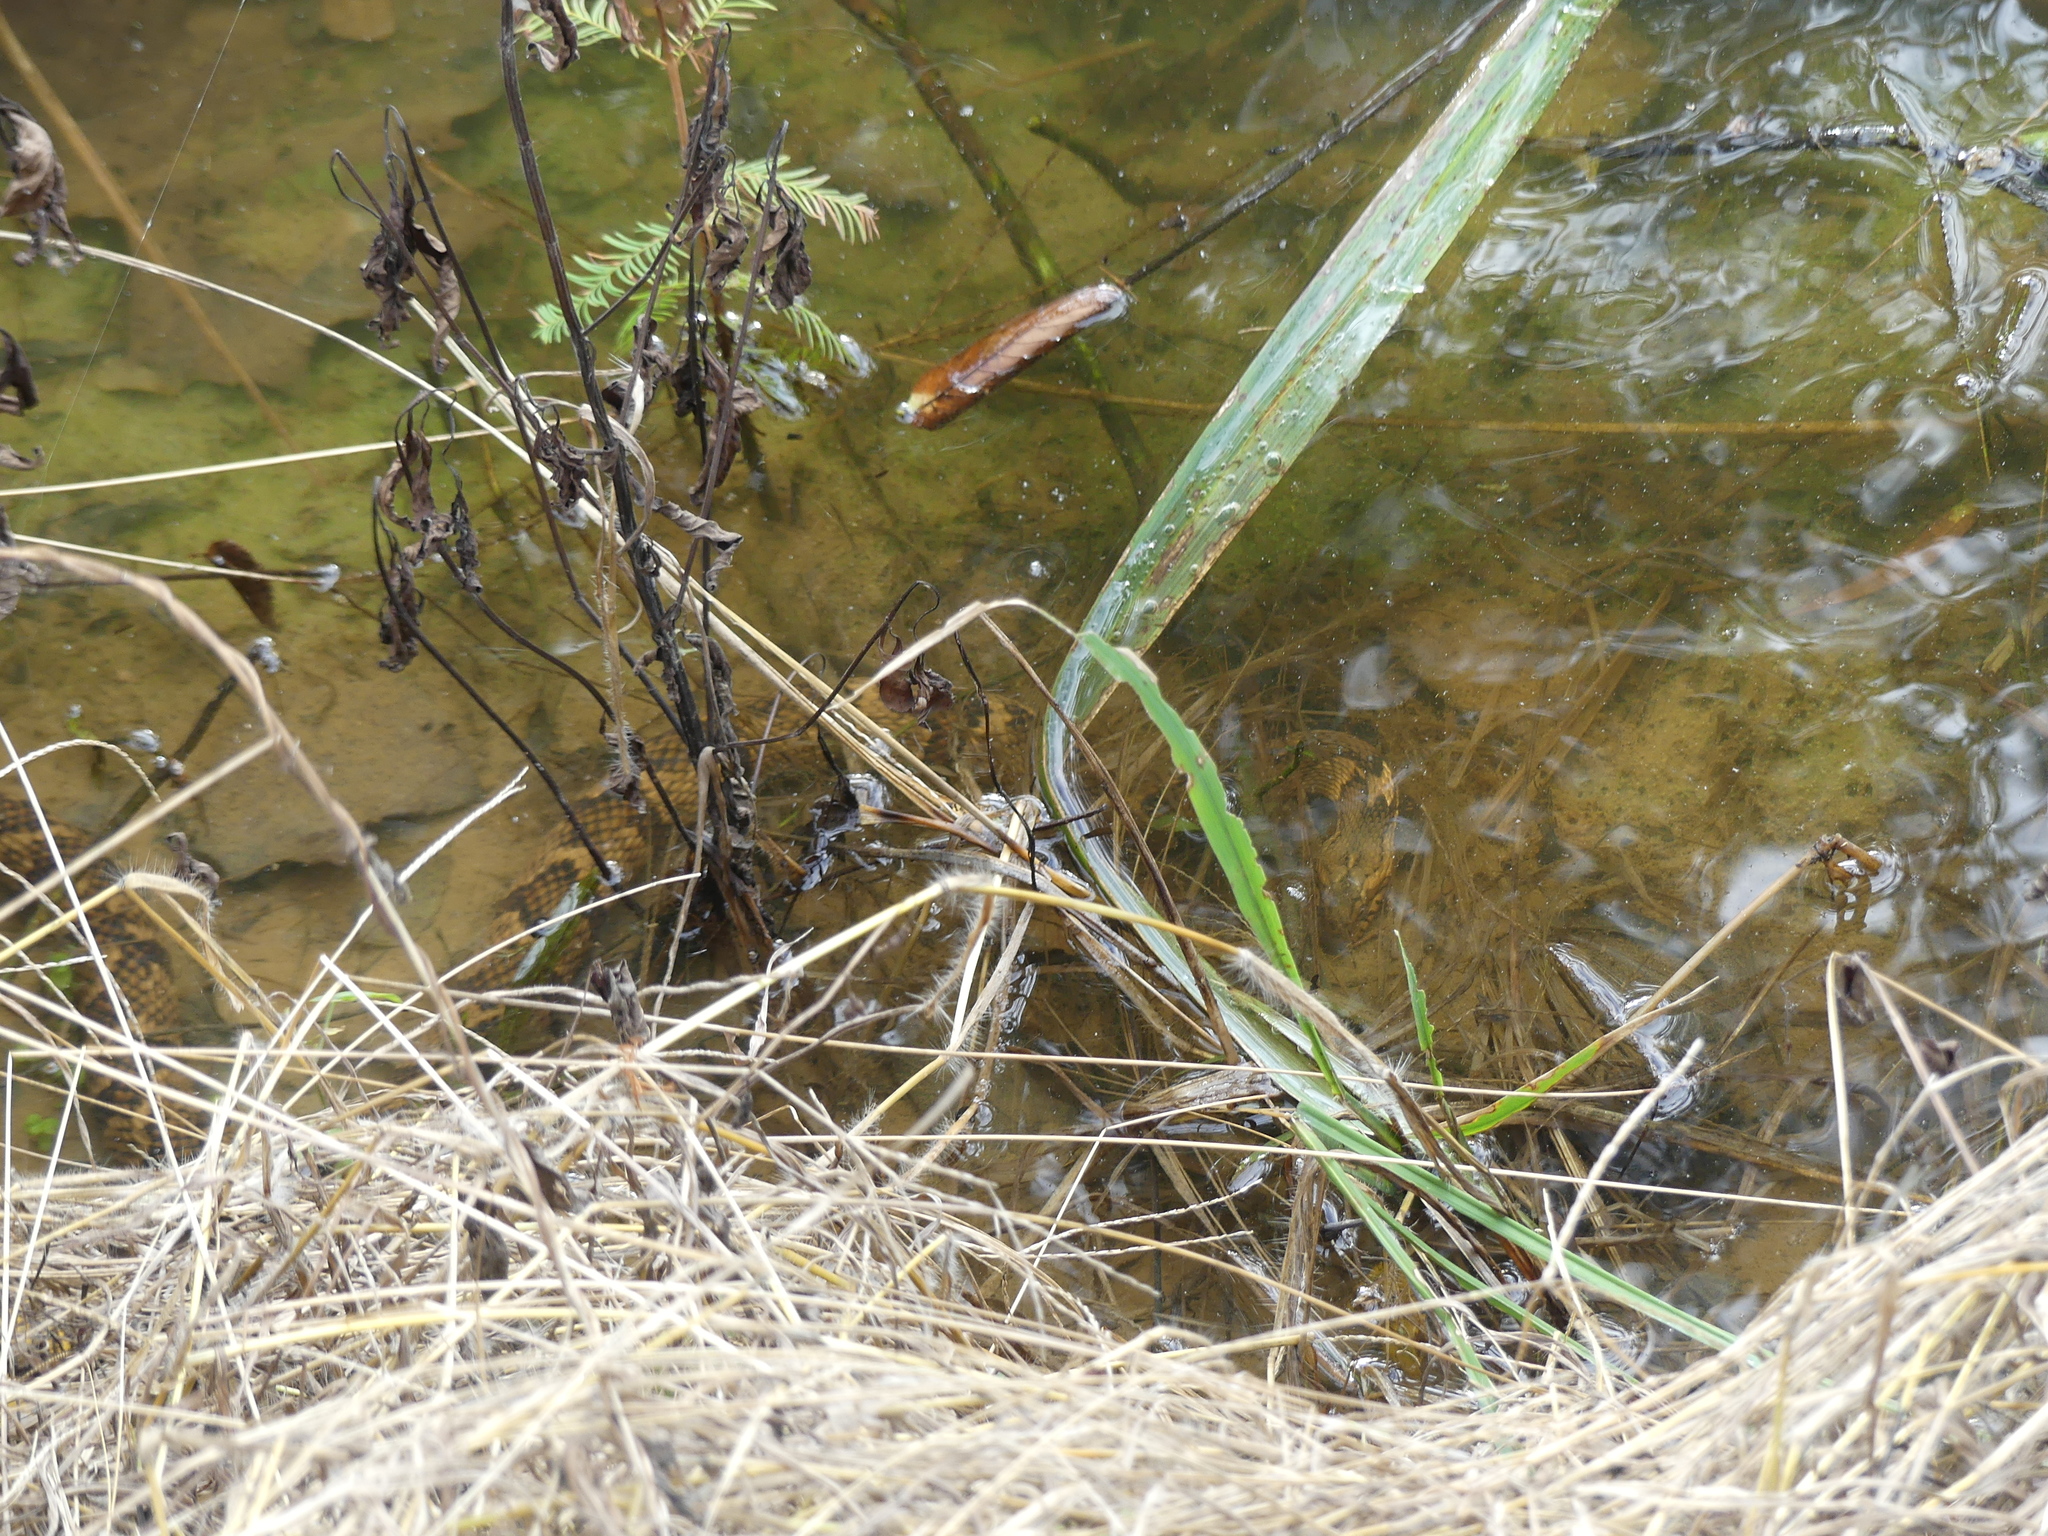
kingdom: Animalia
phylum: Chordata
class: Squamata
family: Colubridae
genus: Nerodia
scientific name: Nerodia fasciata
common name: Southern water snake
